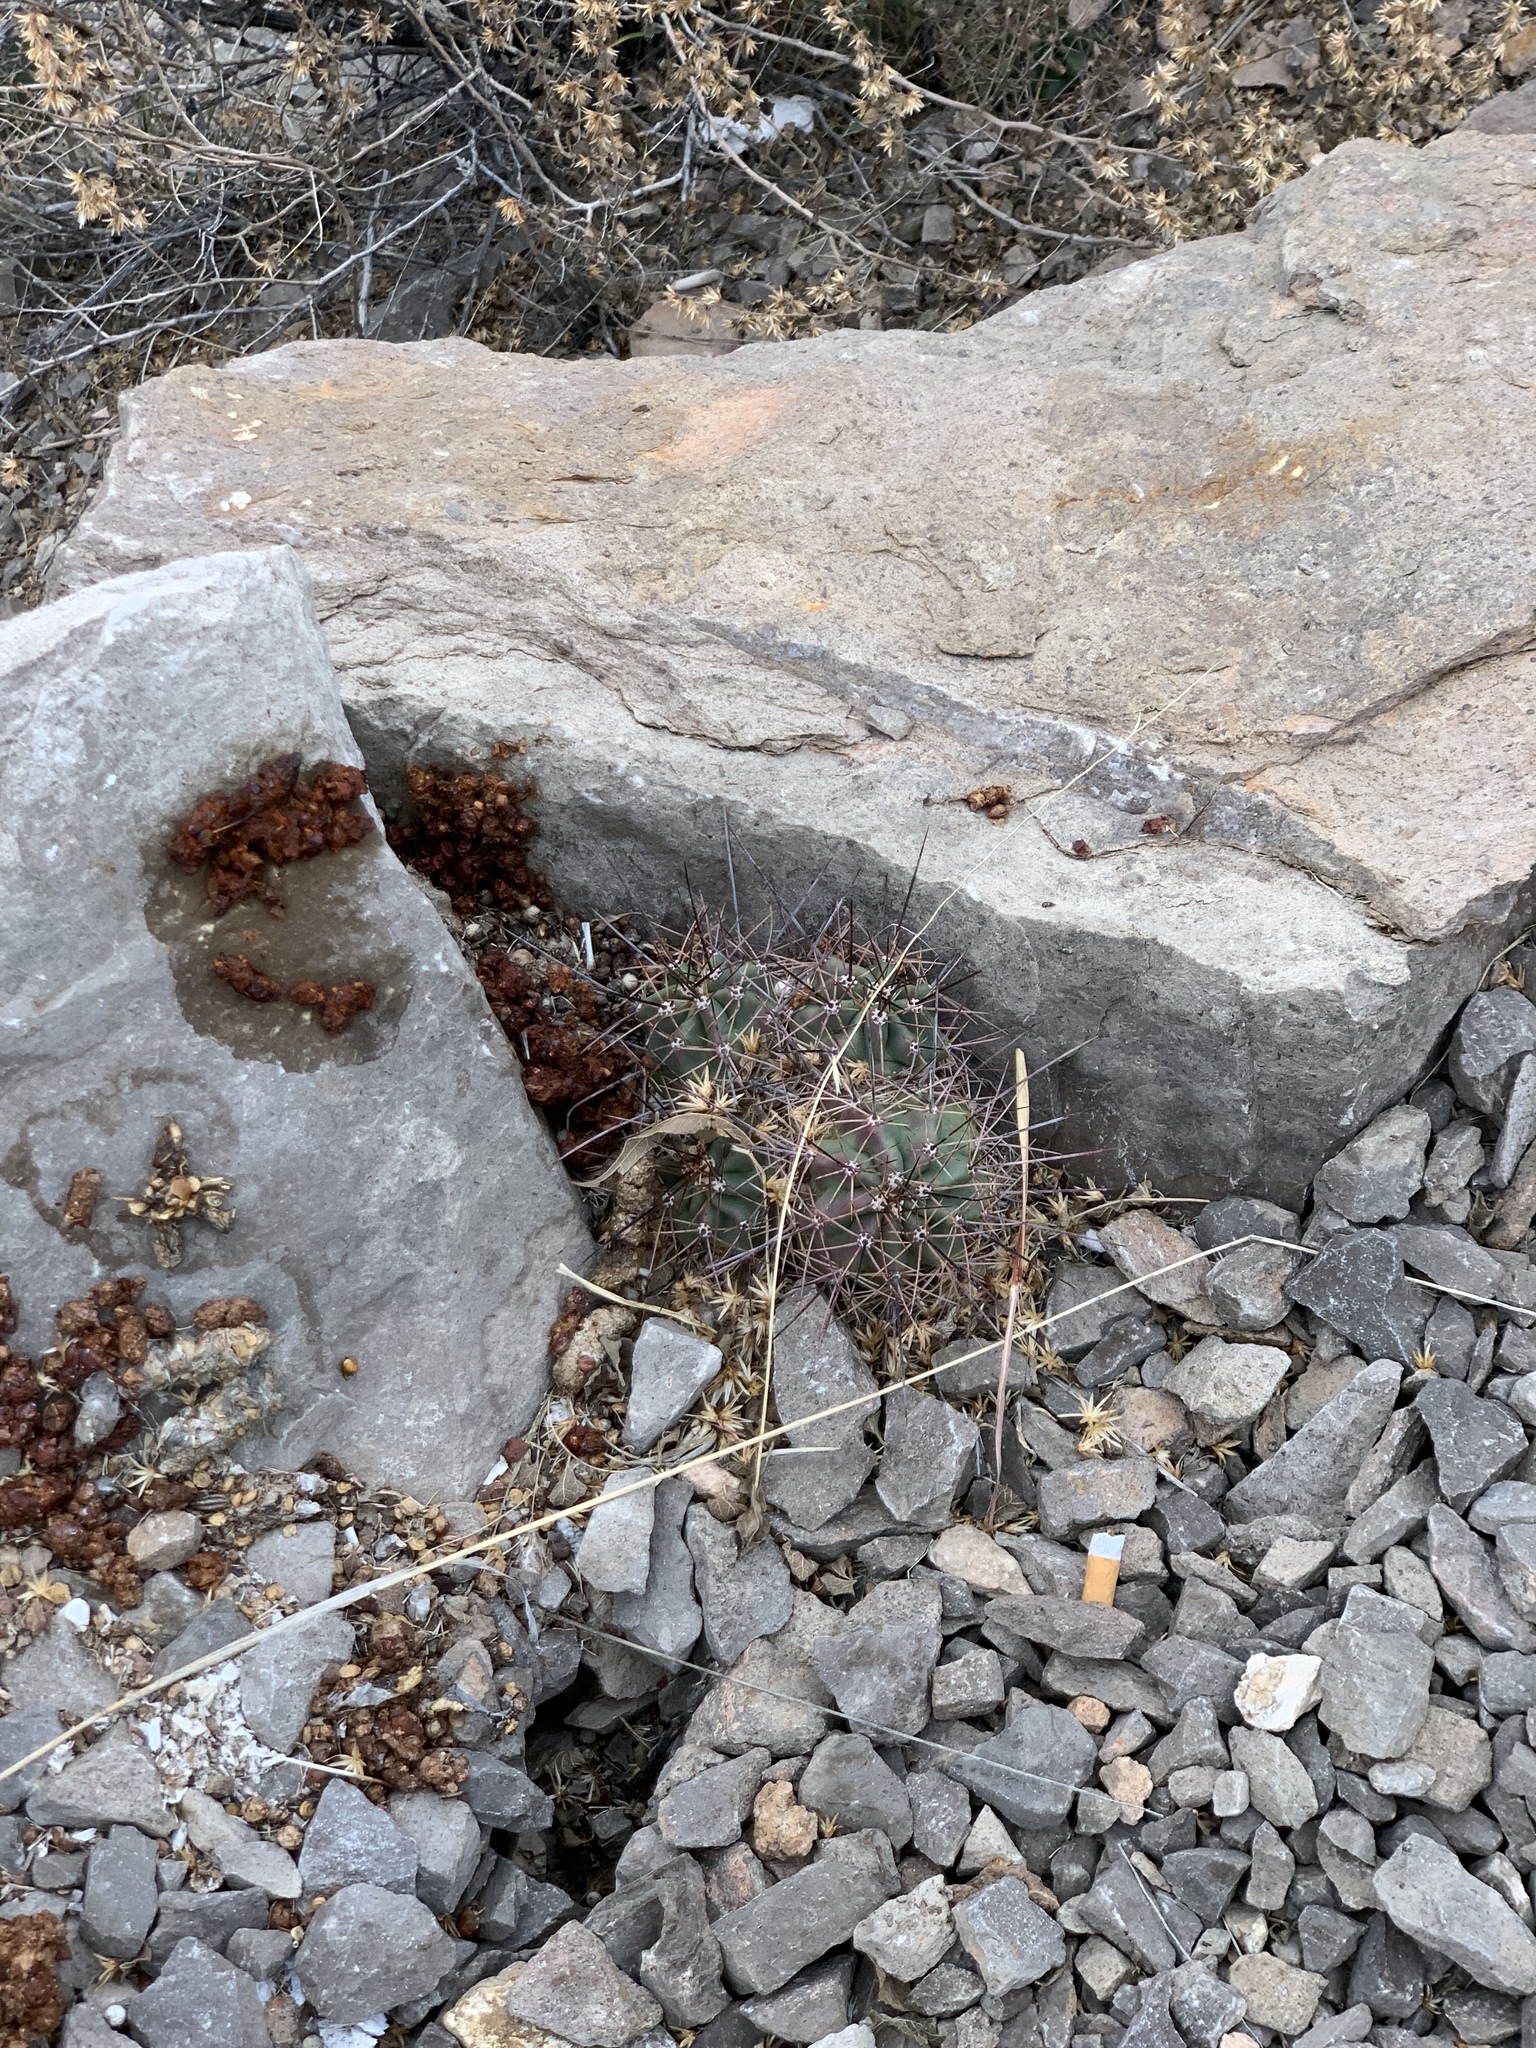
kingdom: Plantae
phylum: Tracheophyta
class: Magnoliopsida
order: Caryophyllales
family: Cactaceae
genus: Echinocereus
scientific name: Echinocereus coccineus
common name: Scarlet hedgehog cactus
